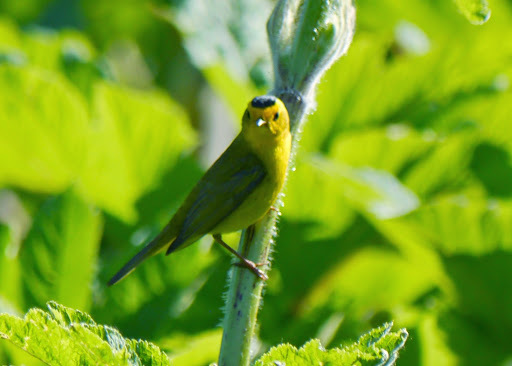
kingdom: Animalia
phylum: Chordata
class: Aves
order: Passeriformes
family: Parulidae
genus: Cardellina
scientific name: Cardellina pusilla
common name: Wilson's warbler
